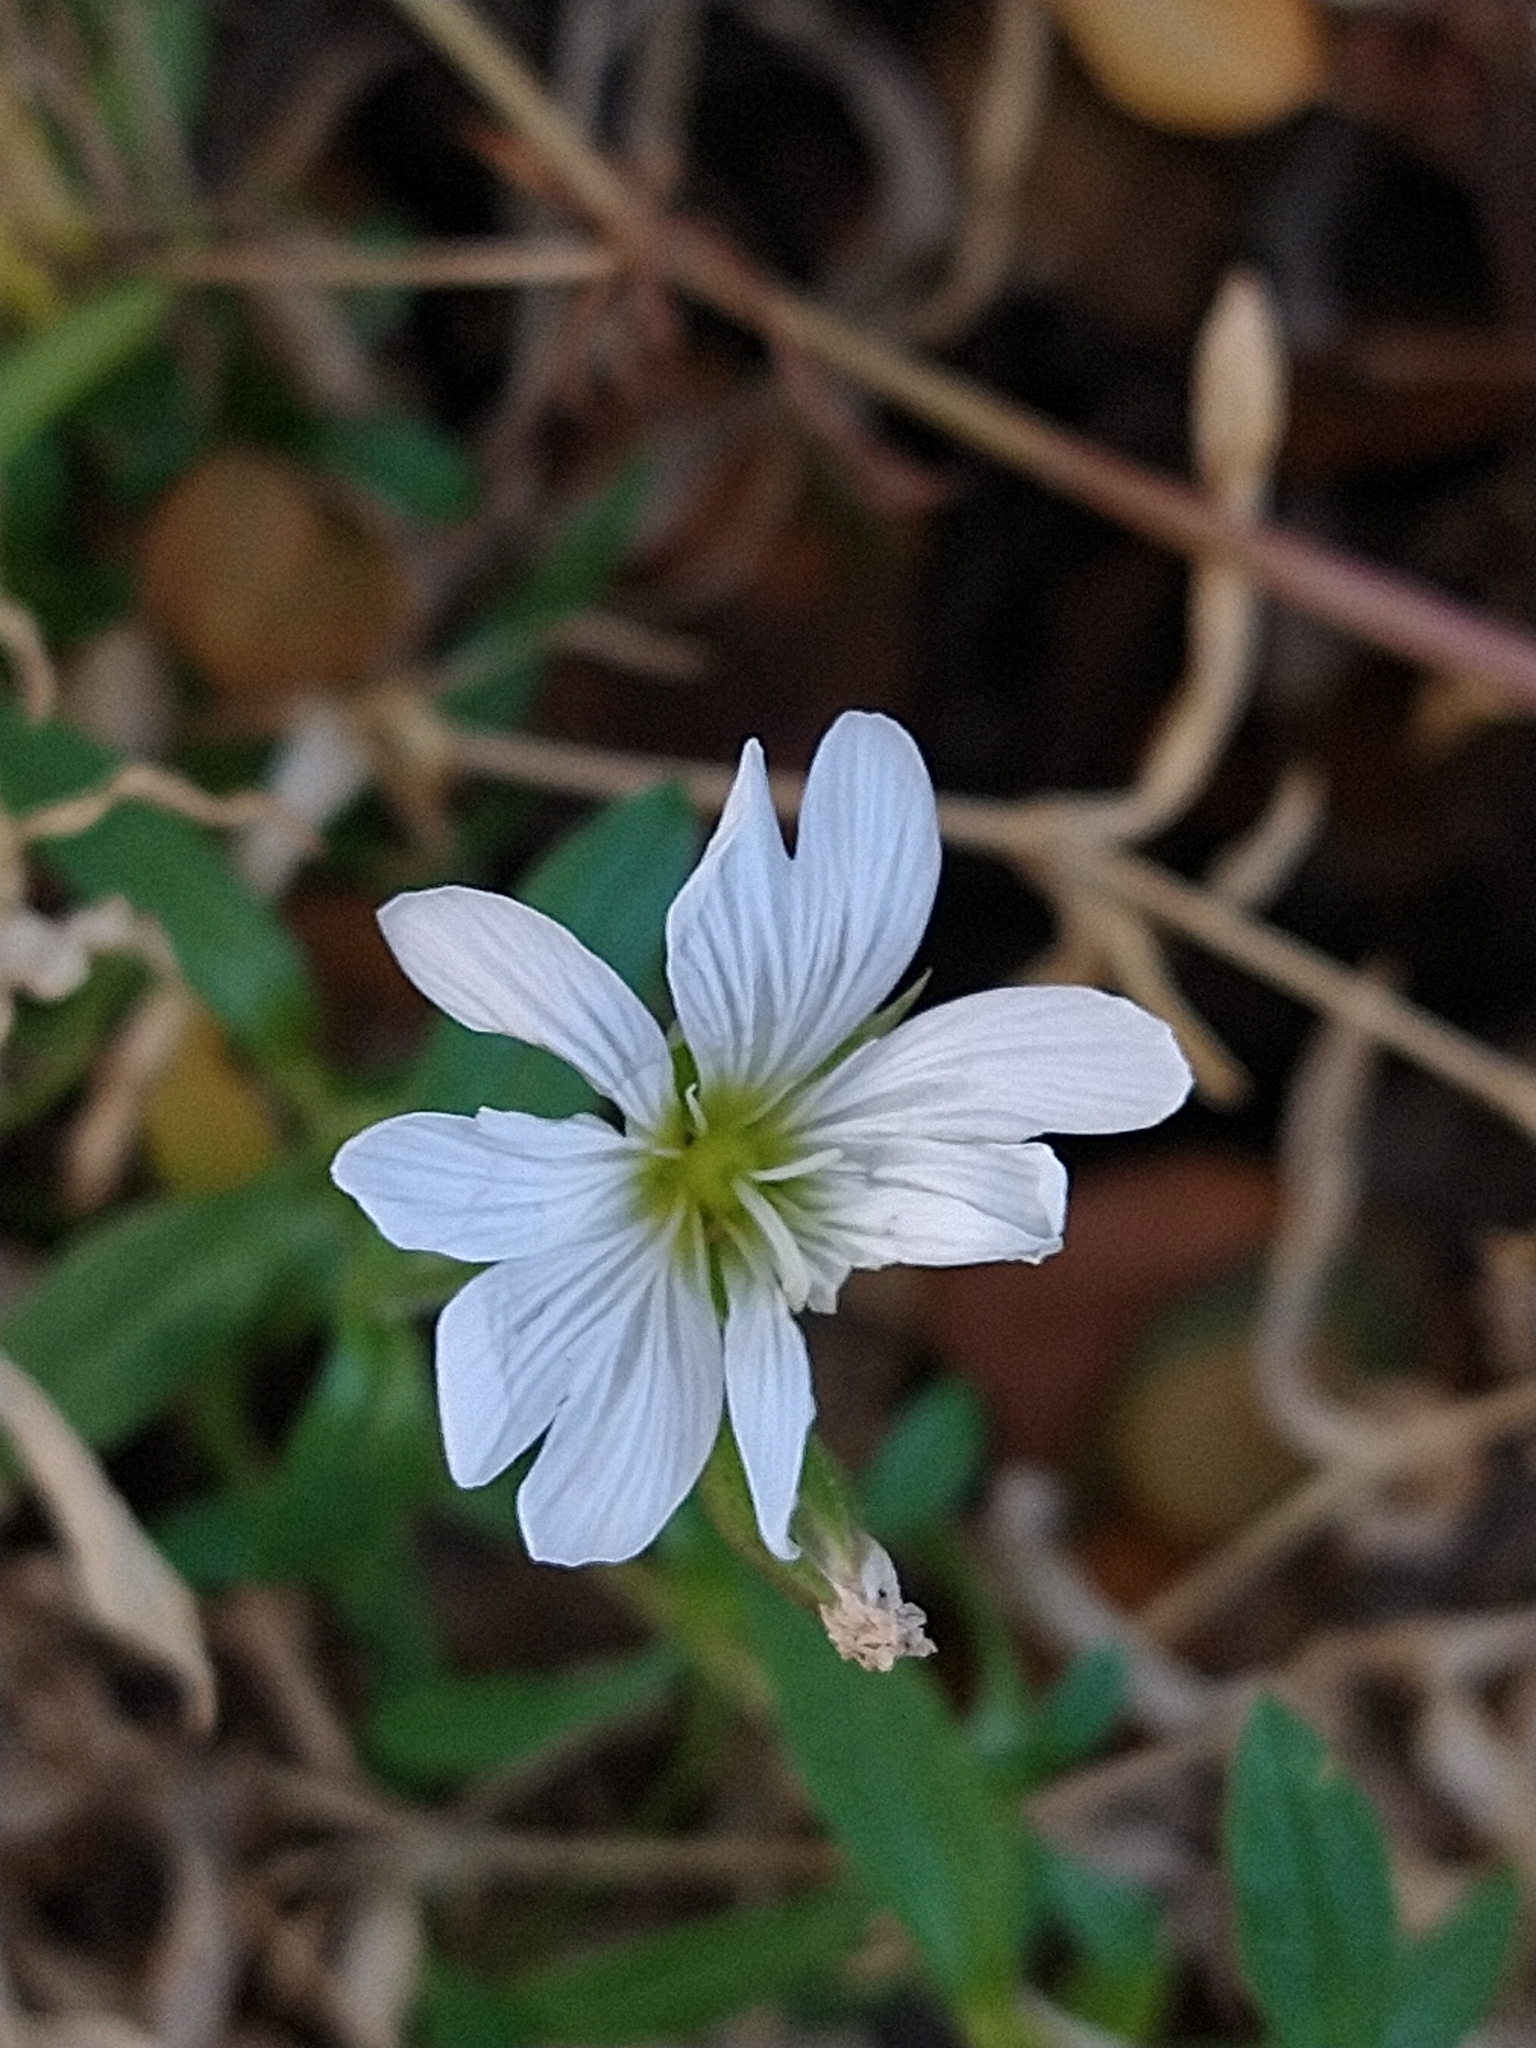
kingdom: Plantae
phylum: Tracheophyta
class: Magnoliopsida
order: Caryophyllales
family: Caryophyllaceae
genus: Cerastium
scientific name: Cerastium arvense
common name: Field mouse-ear
